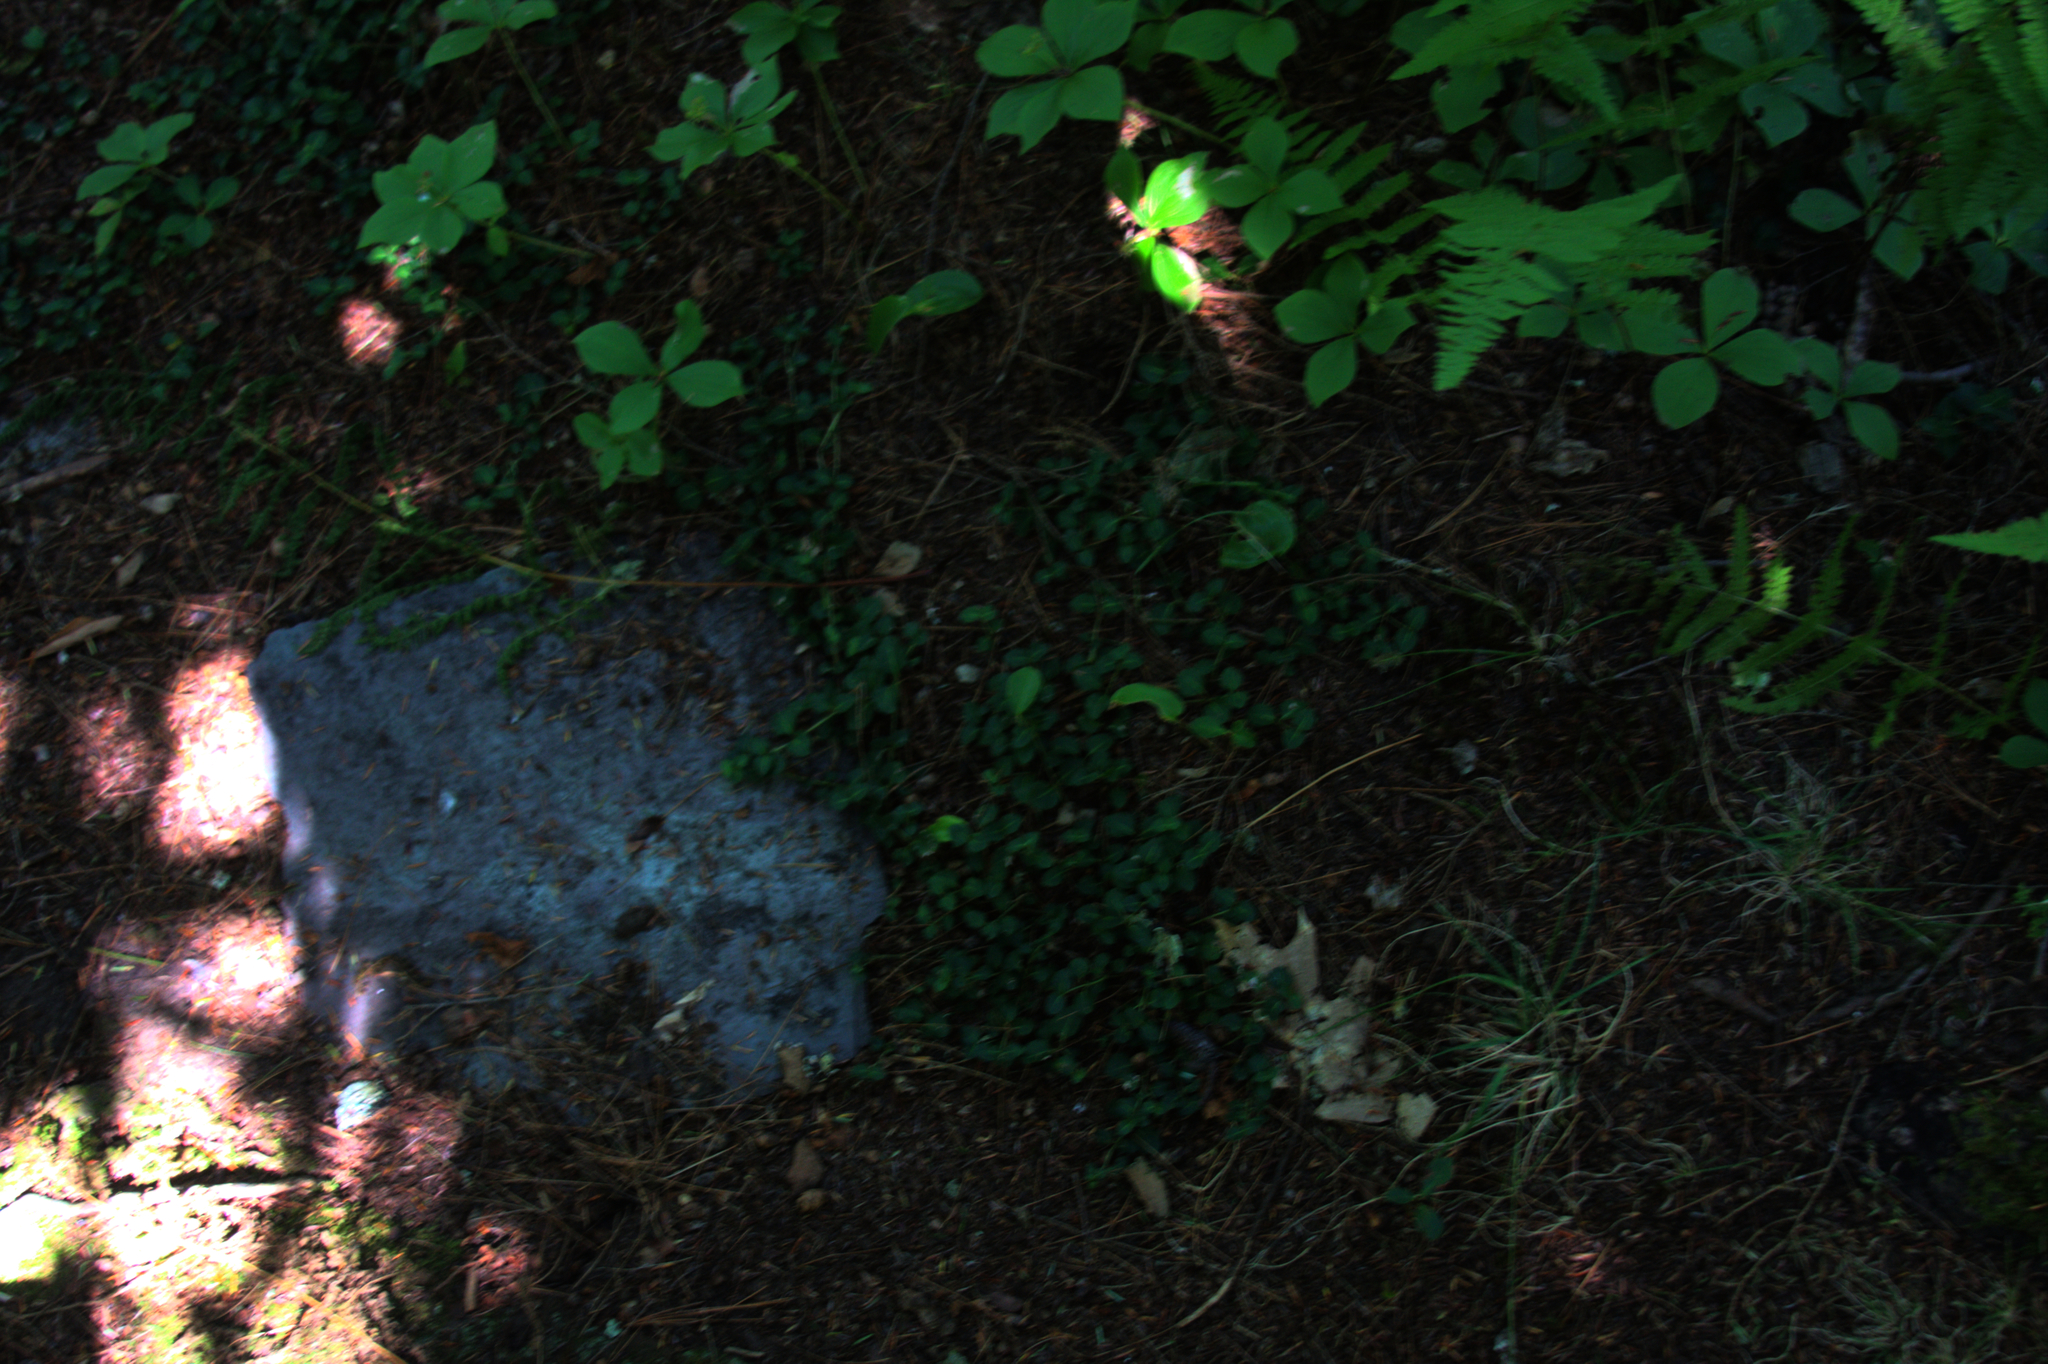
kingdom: Plantae
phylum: Tracheophyta
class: Magnoliopsida
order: Gentianales
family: Rubiaceae
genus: Mitchella
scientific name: Mitchella repens
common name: Partridge-berry
